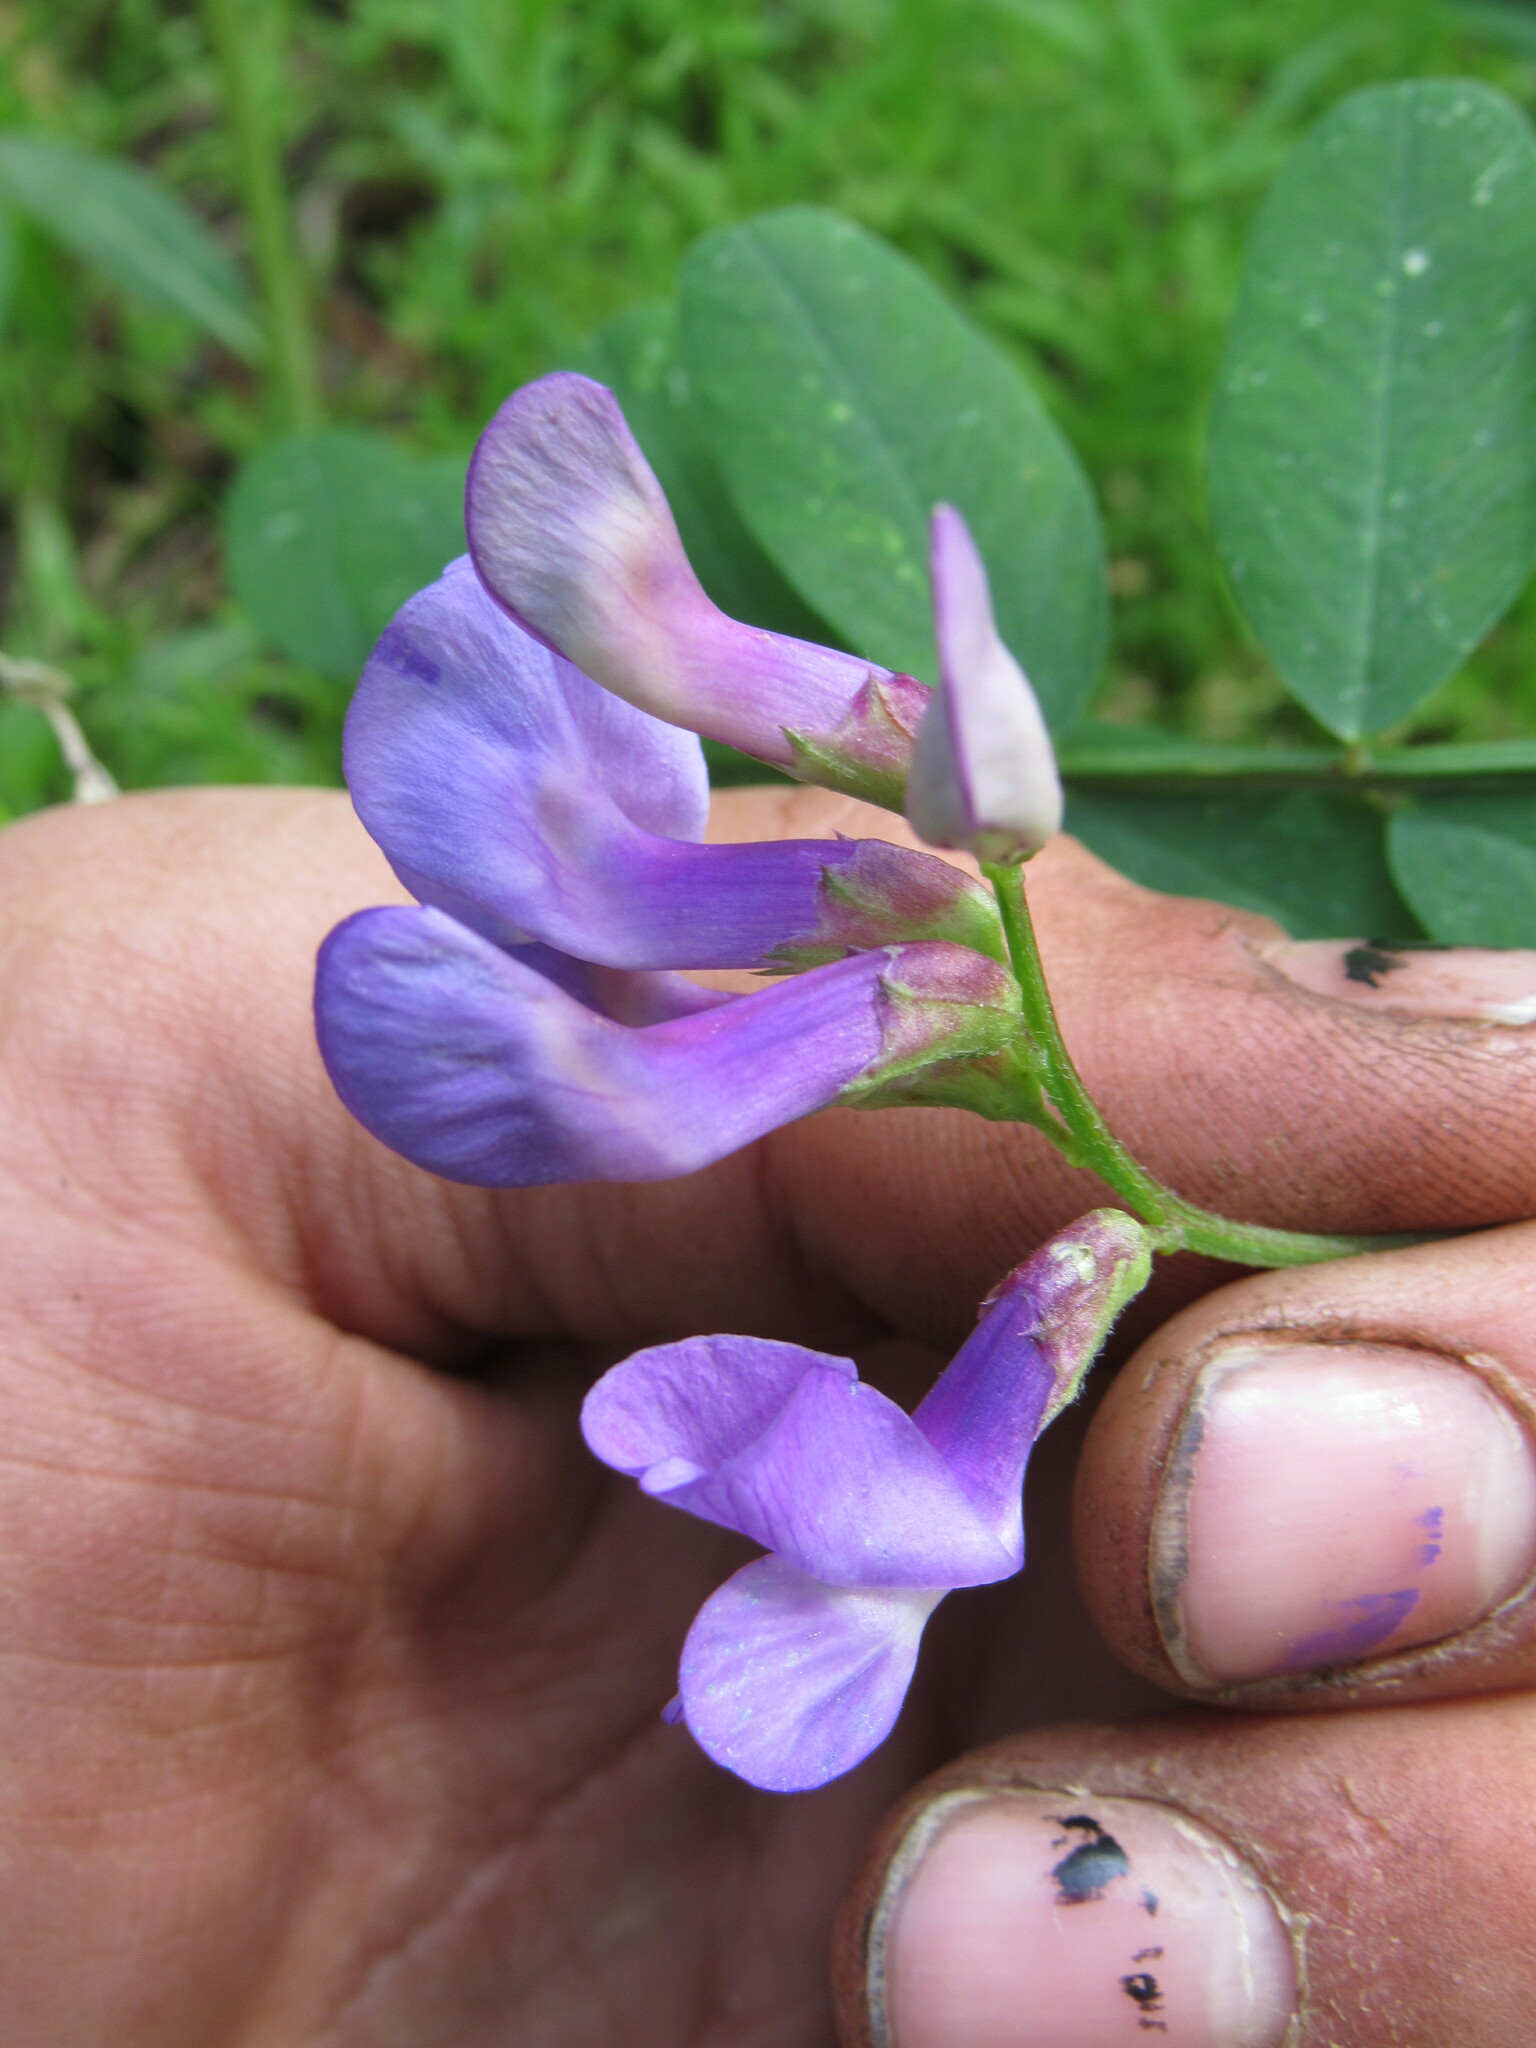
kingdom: Plantae
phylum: Tracheophyta
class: Magnoliopsida
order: Fabales
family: Fabaceae
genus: Vicia
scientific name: Vicia americana
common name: American vetch
